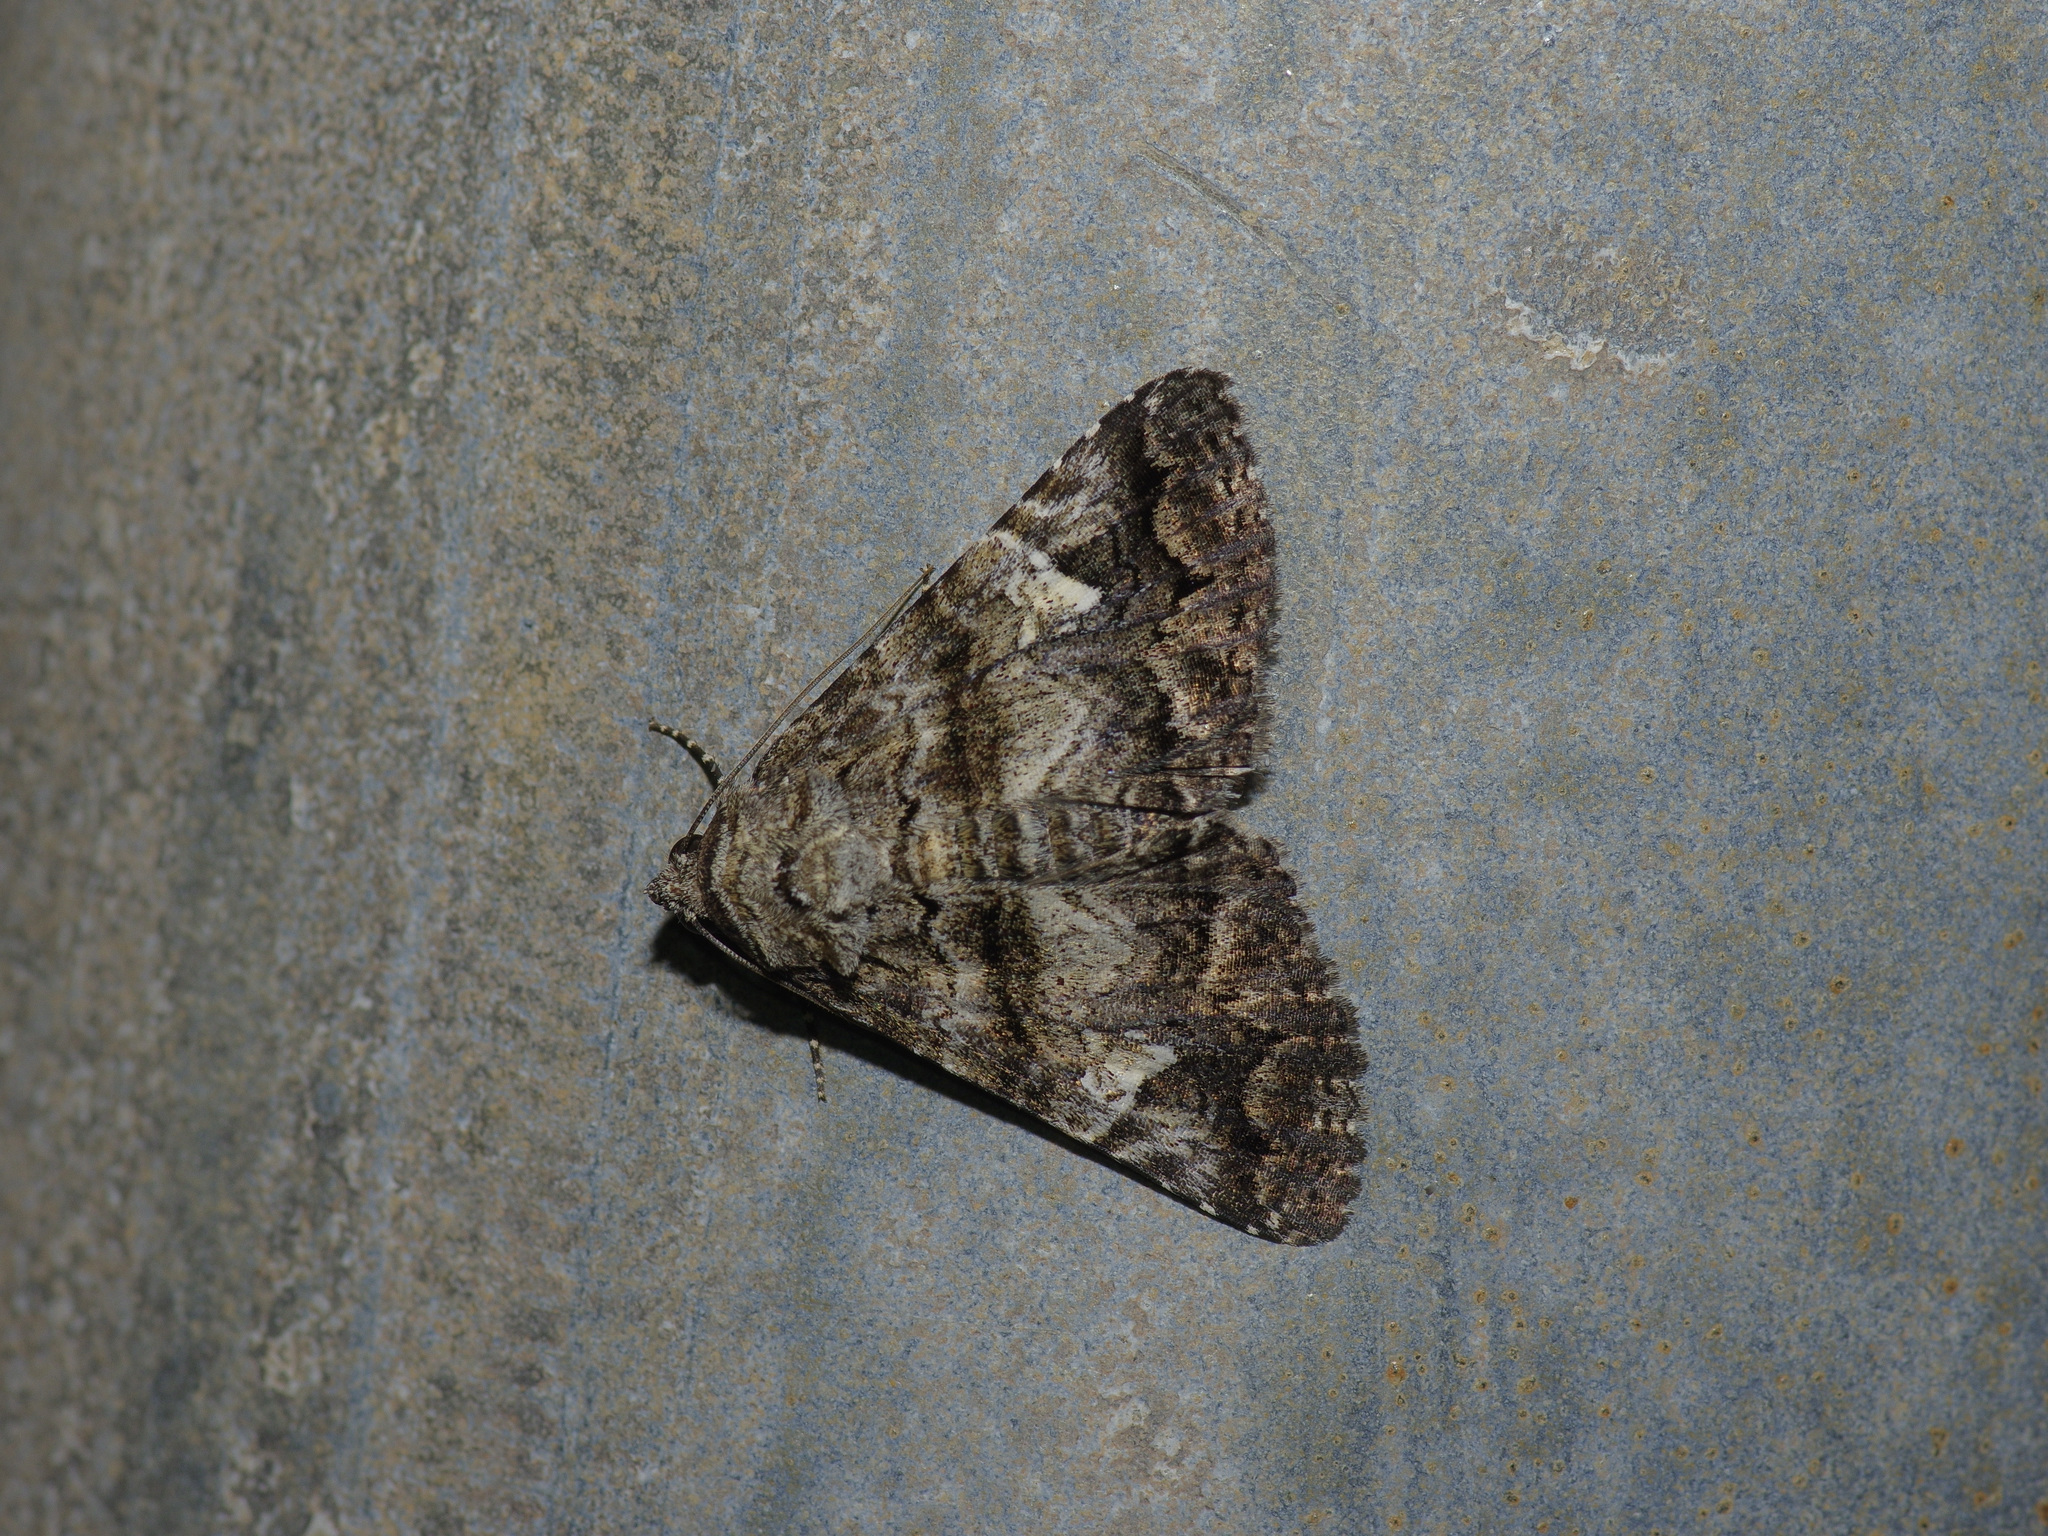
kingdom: Animalia
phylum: Arthropoda
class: Insecta
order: Lepidoptera
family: Erebidae
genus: Metria
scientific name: Metria amella
